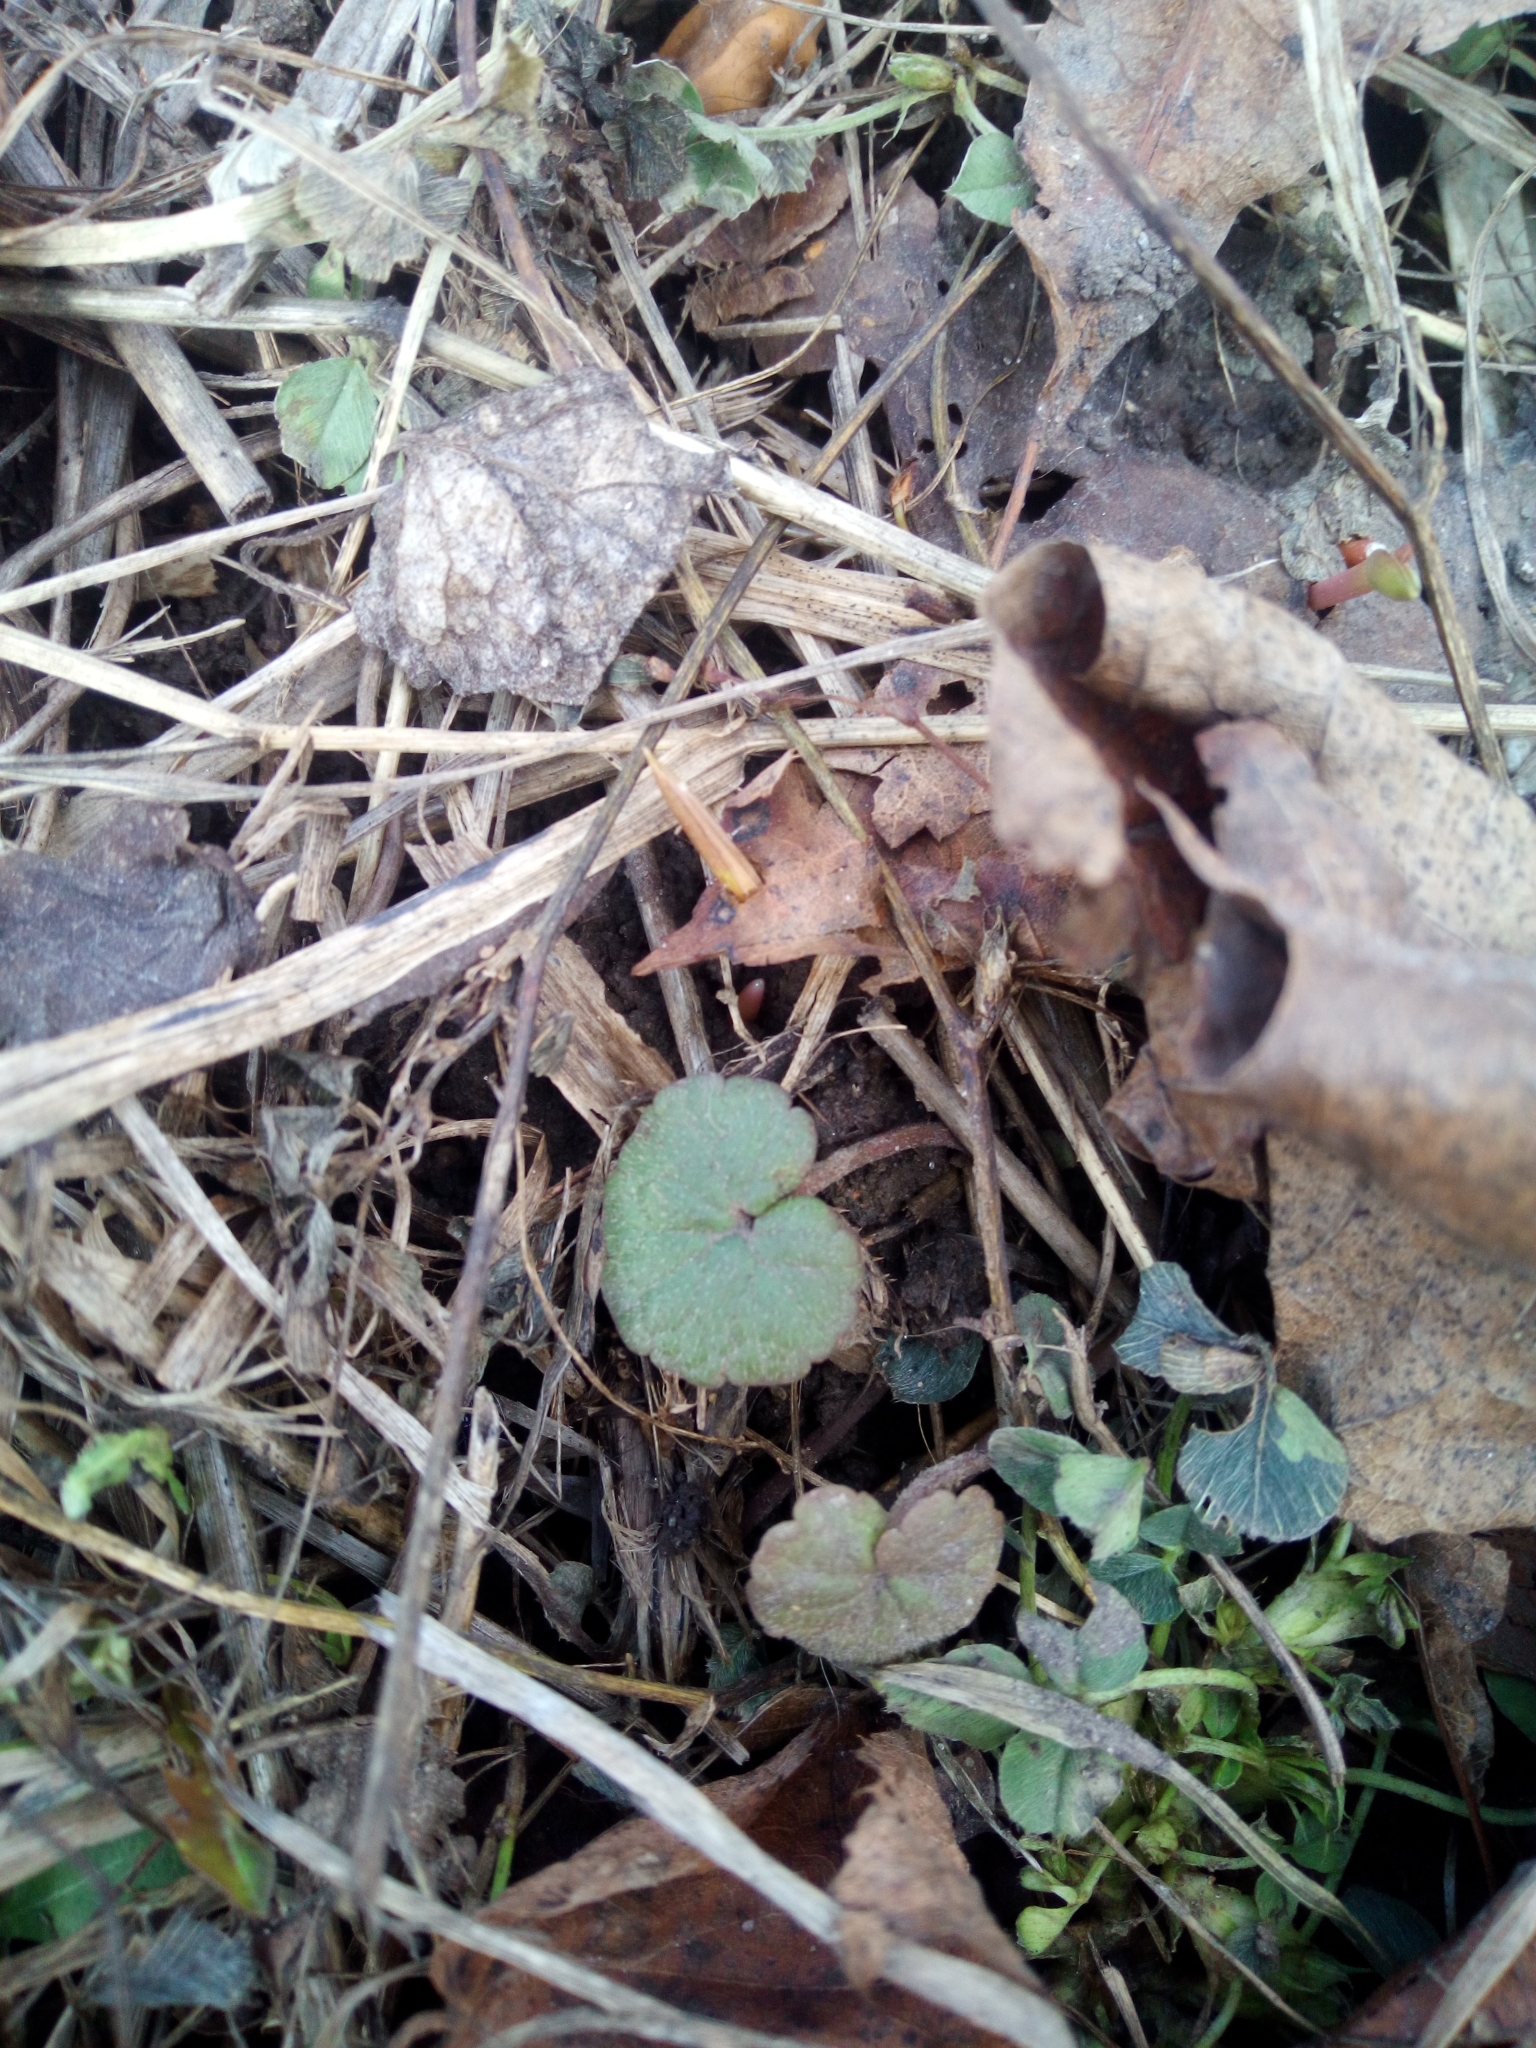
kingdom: Plantae
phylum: Tracheophyta
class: Magnoliopsida
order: Lamiales
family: Lamiaceae
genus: Glechoma
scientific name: Glechoma hederacea
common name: Ground ivy
